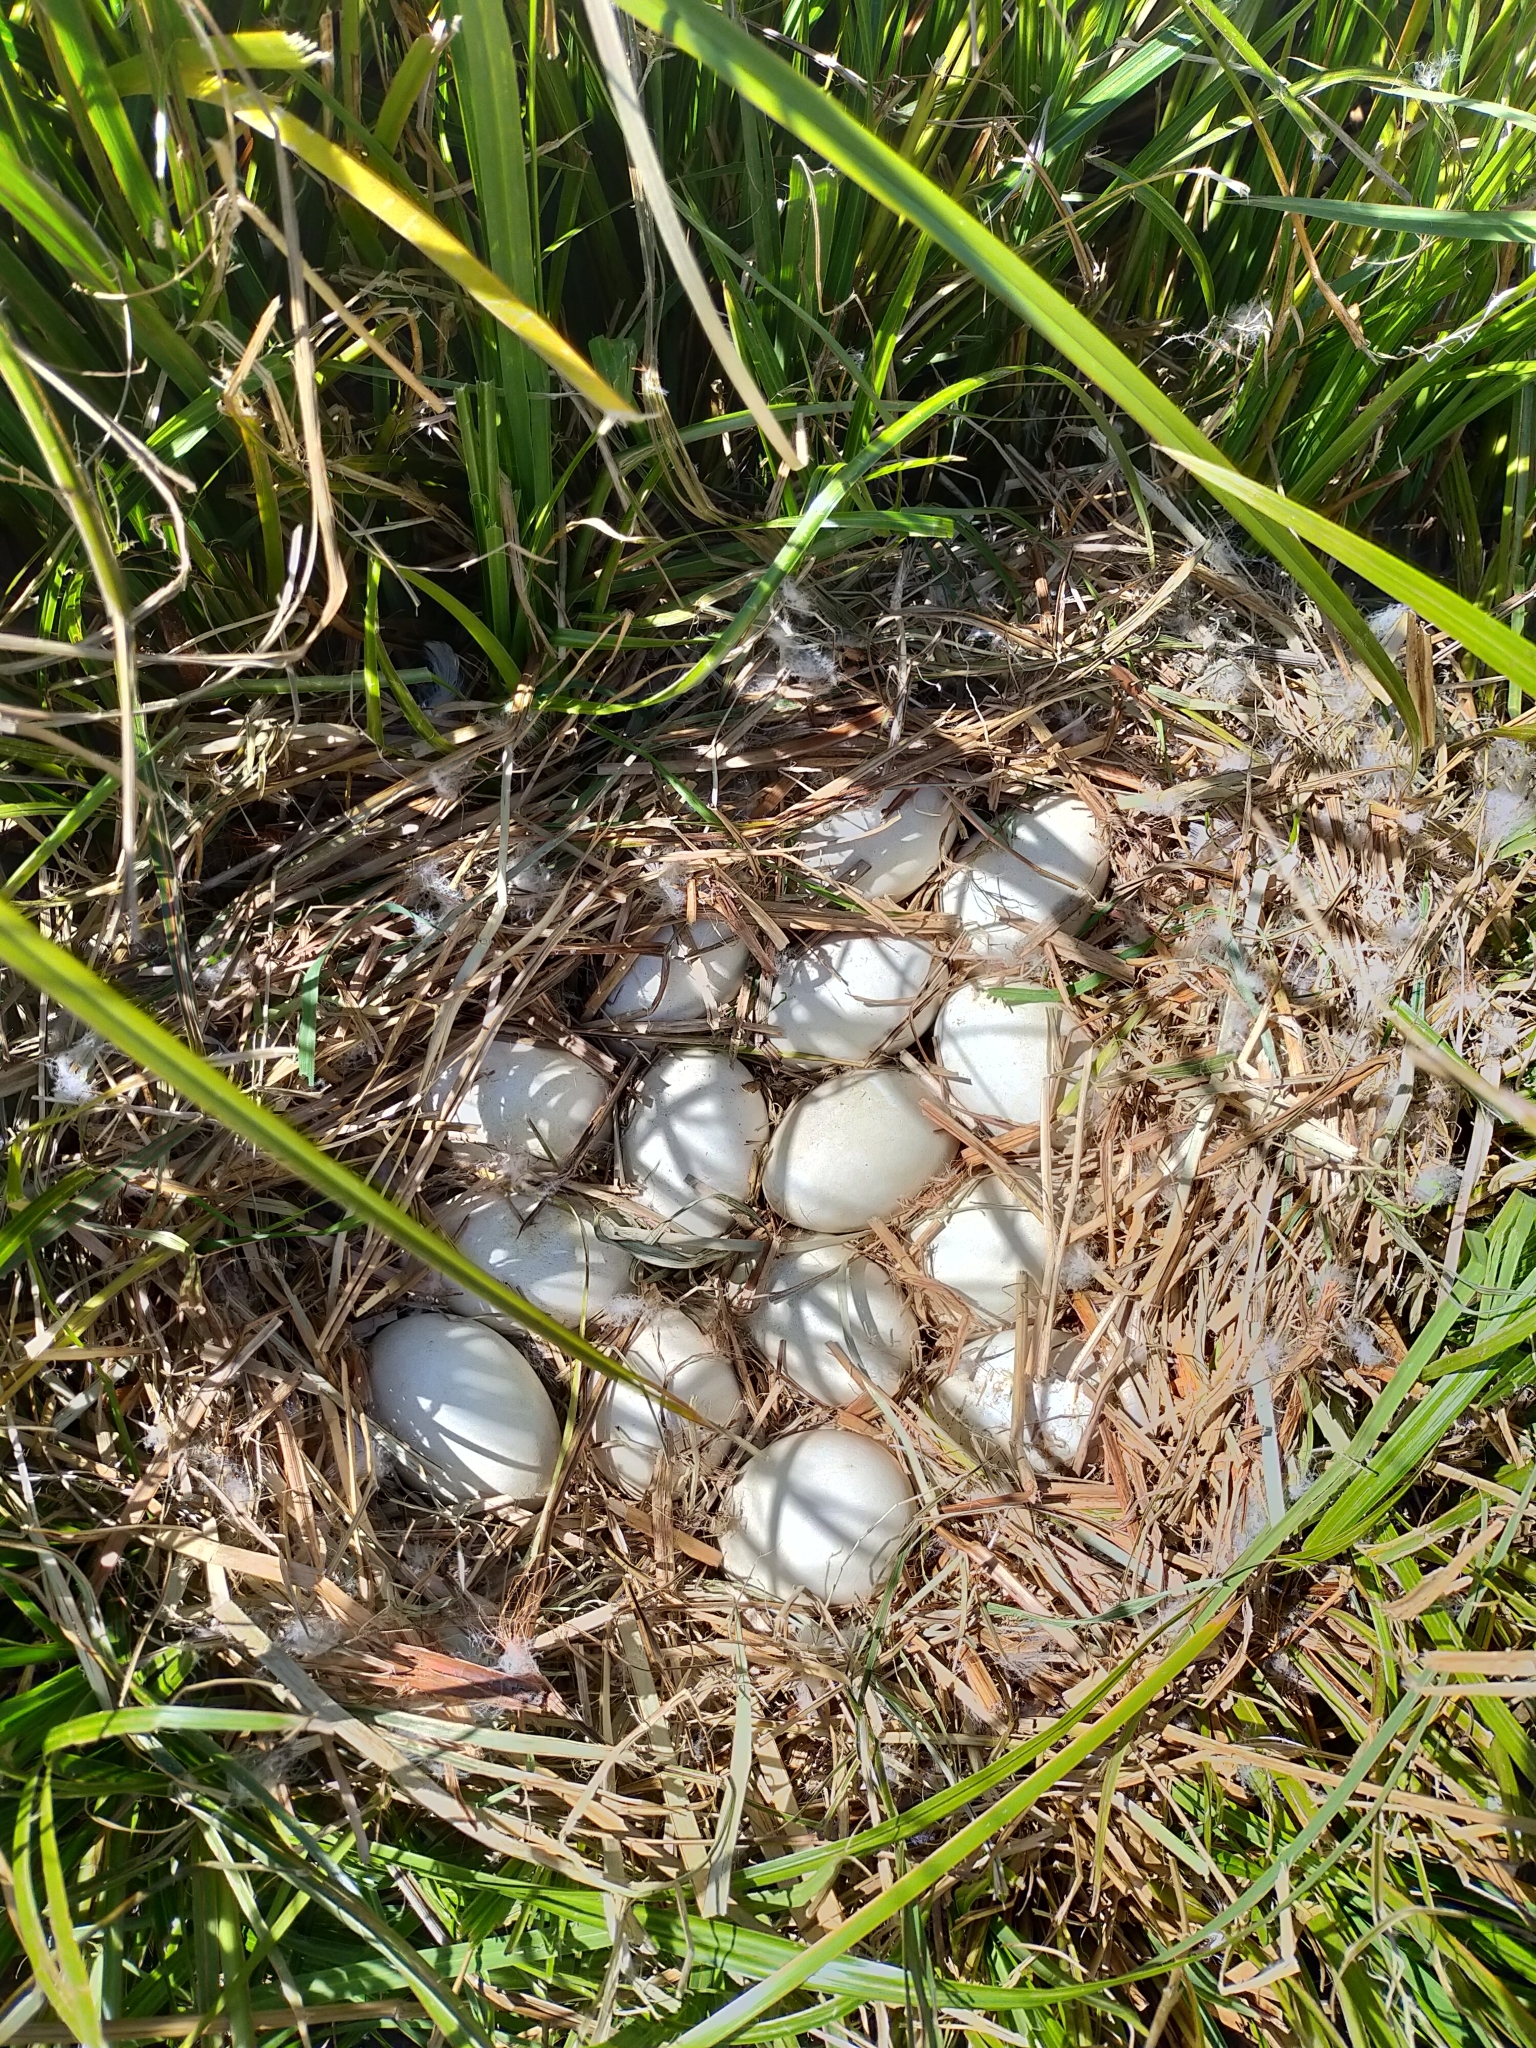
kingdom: Animalia
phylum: Chordata
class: Aves
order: Anseriformes
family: Anatidae
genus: Anser
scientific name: Anser anser
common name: Greylag goose
